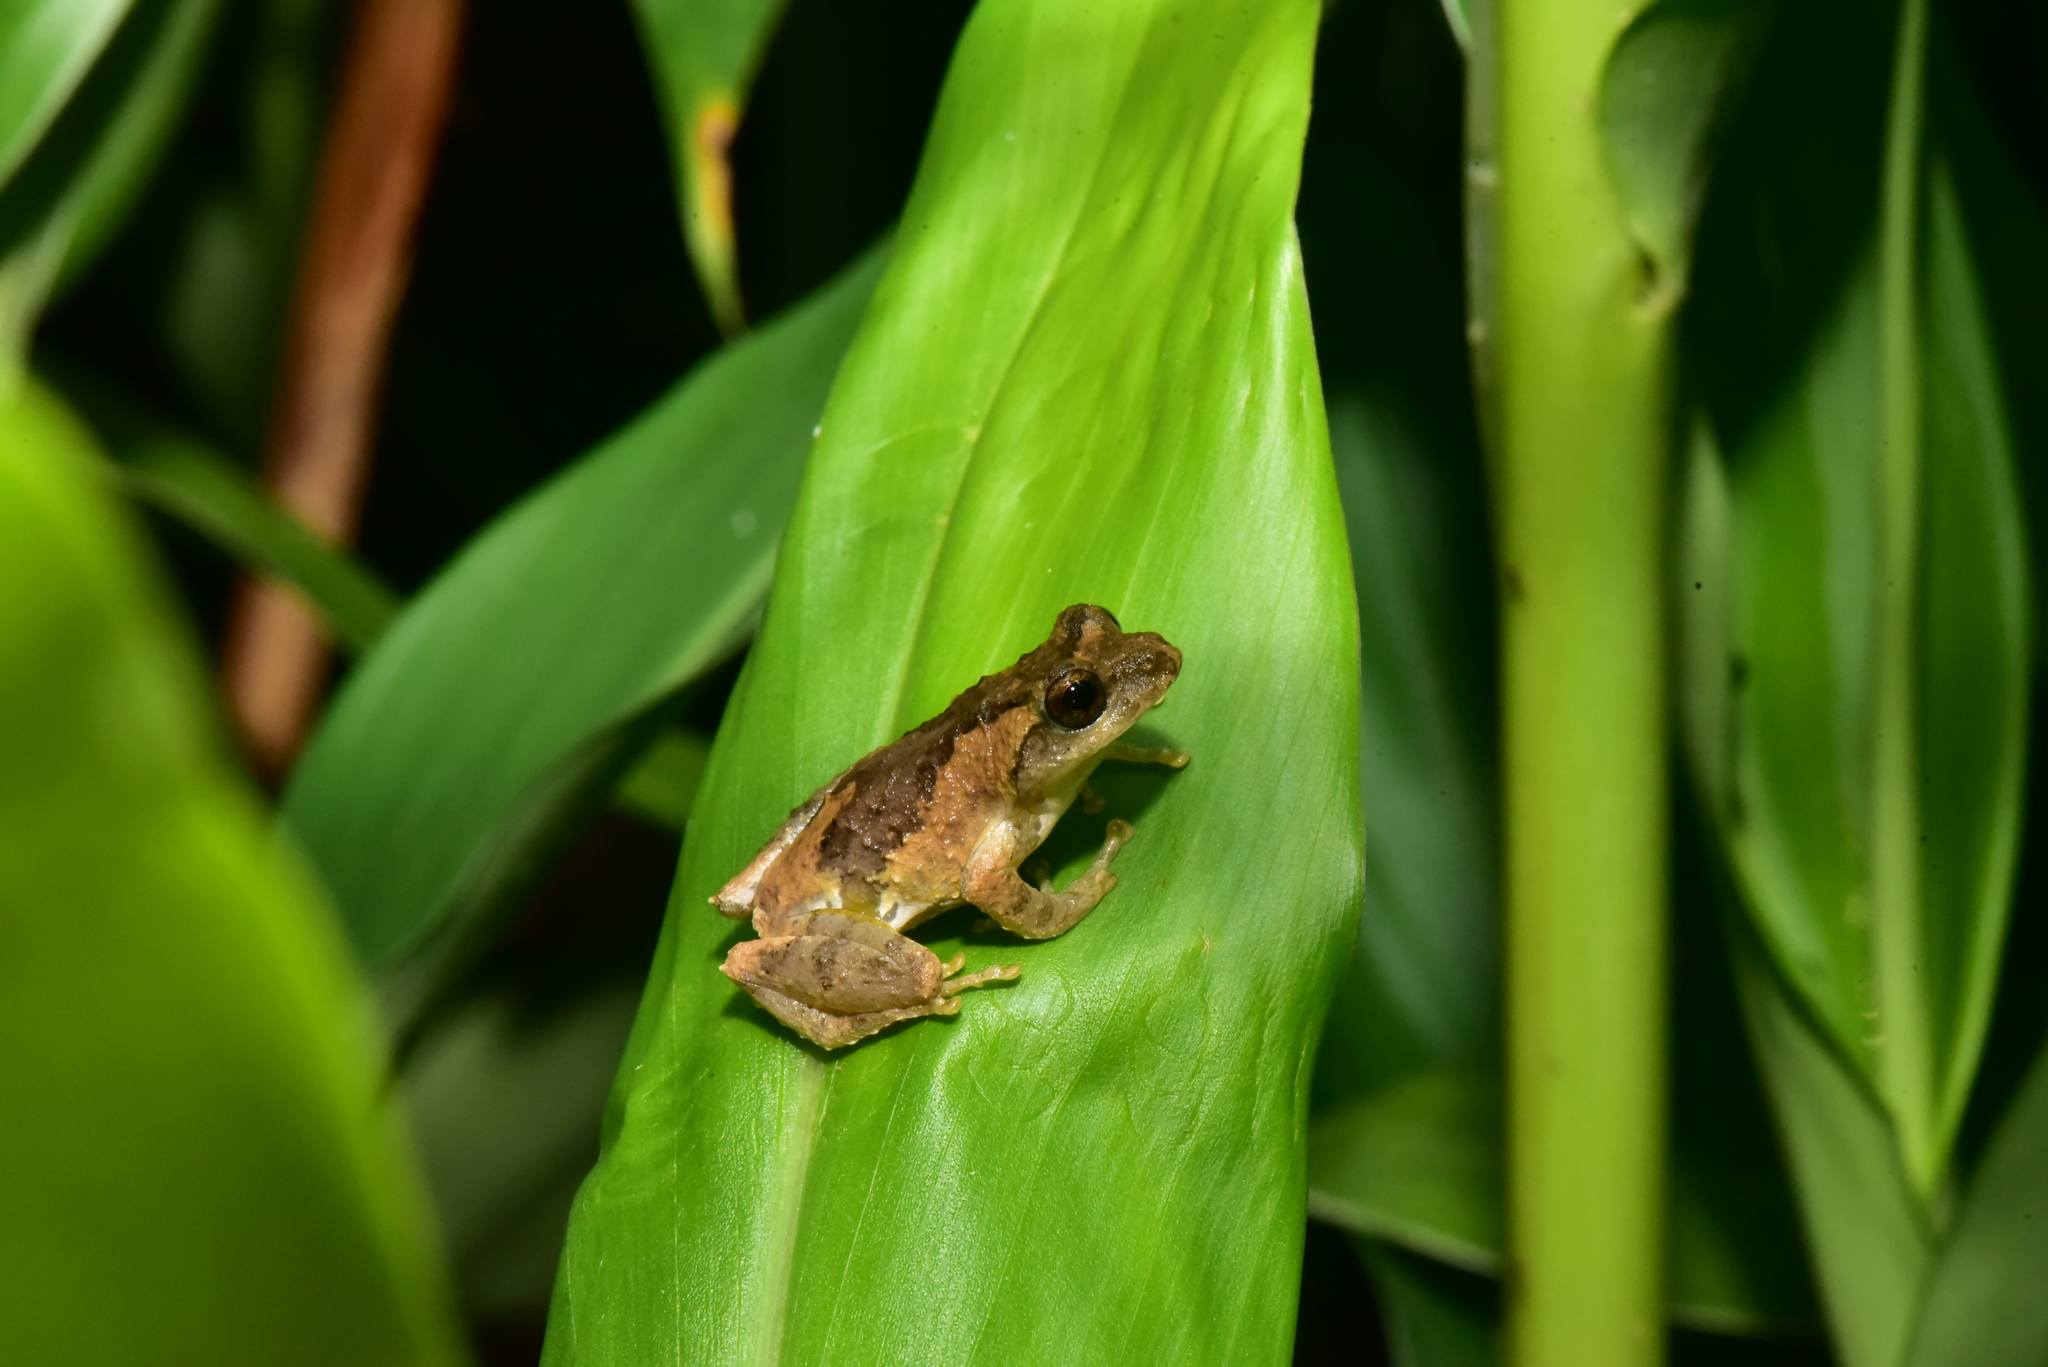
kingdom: Animalia
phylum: Chordata
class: Amphibia
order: Anura
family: Rhacophoridae
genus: Kurixalus
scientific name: Kurixalus idiootocus
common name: Temple treefrog
